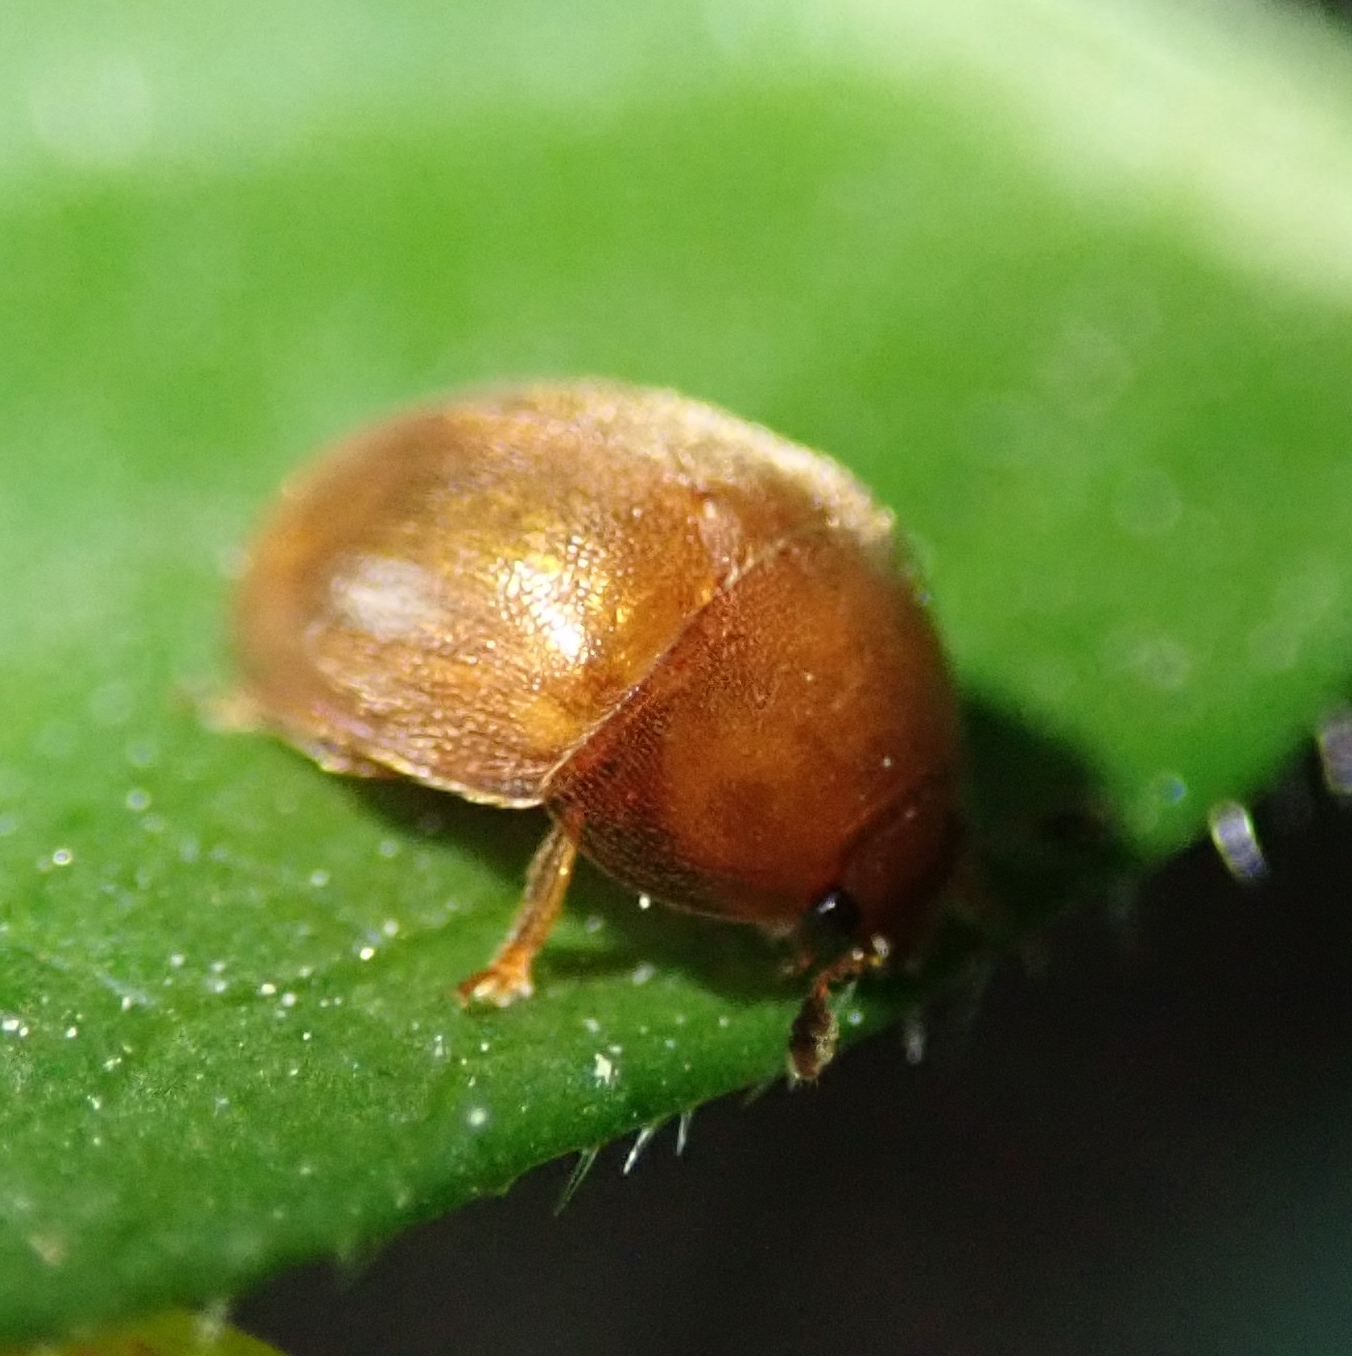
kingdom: Animalia
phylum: Arthropoda
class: Insecta
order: Coleoptera
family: Nitidulidae
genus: Cychramus
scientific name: Cychramus luteus
